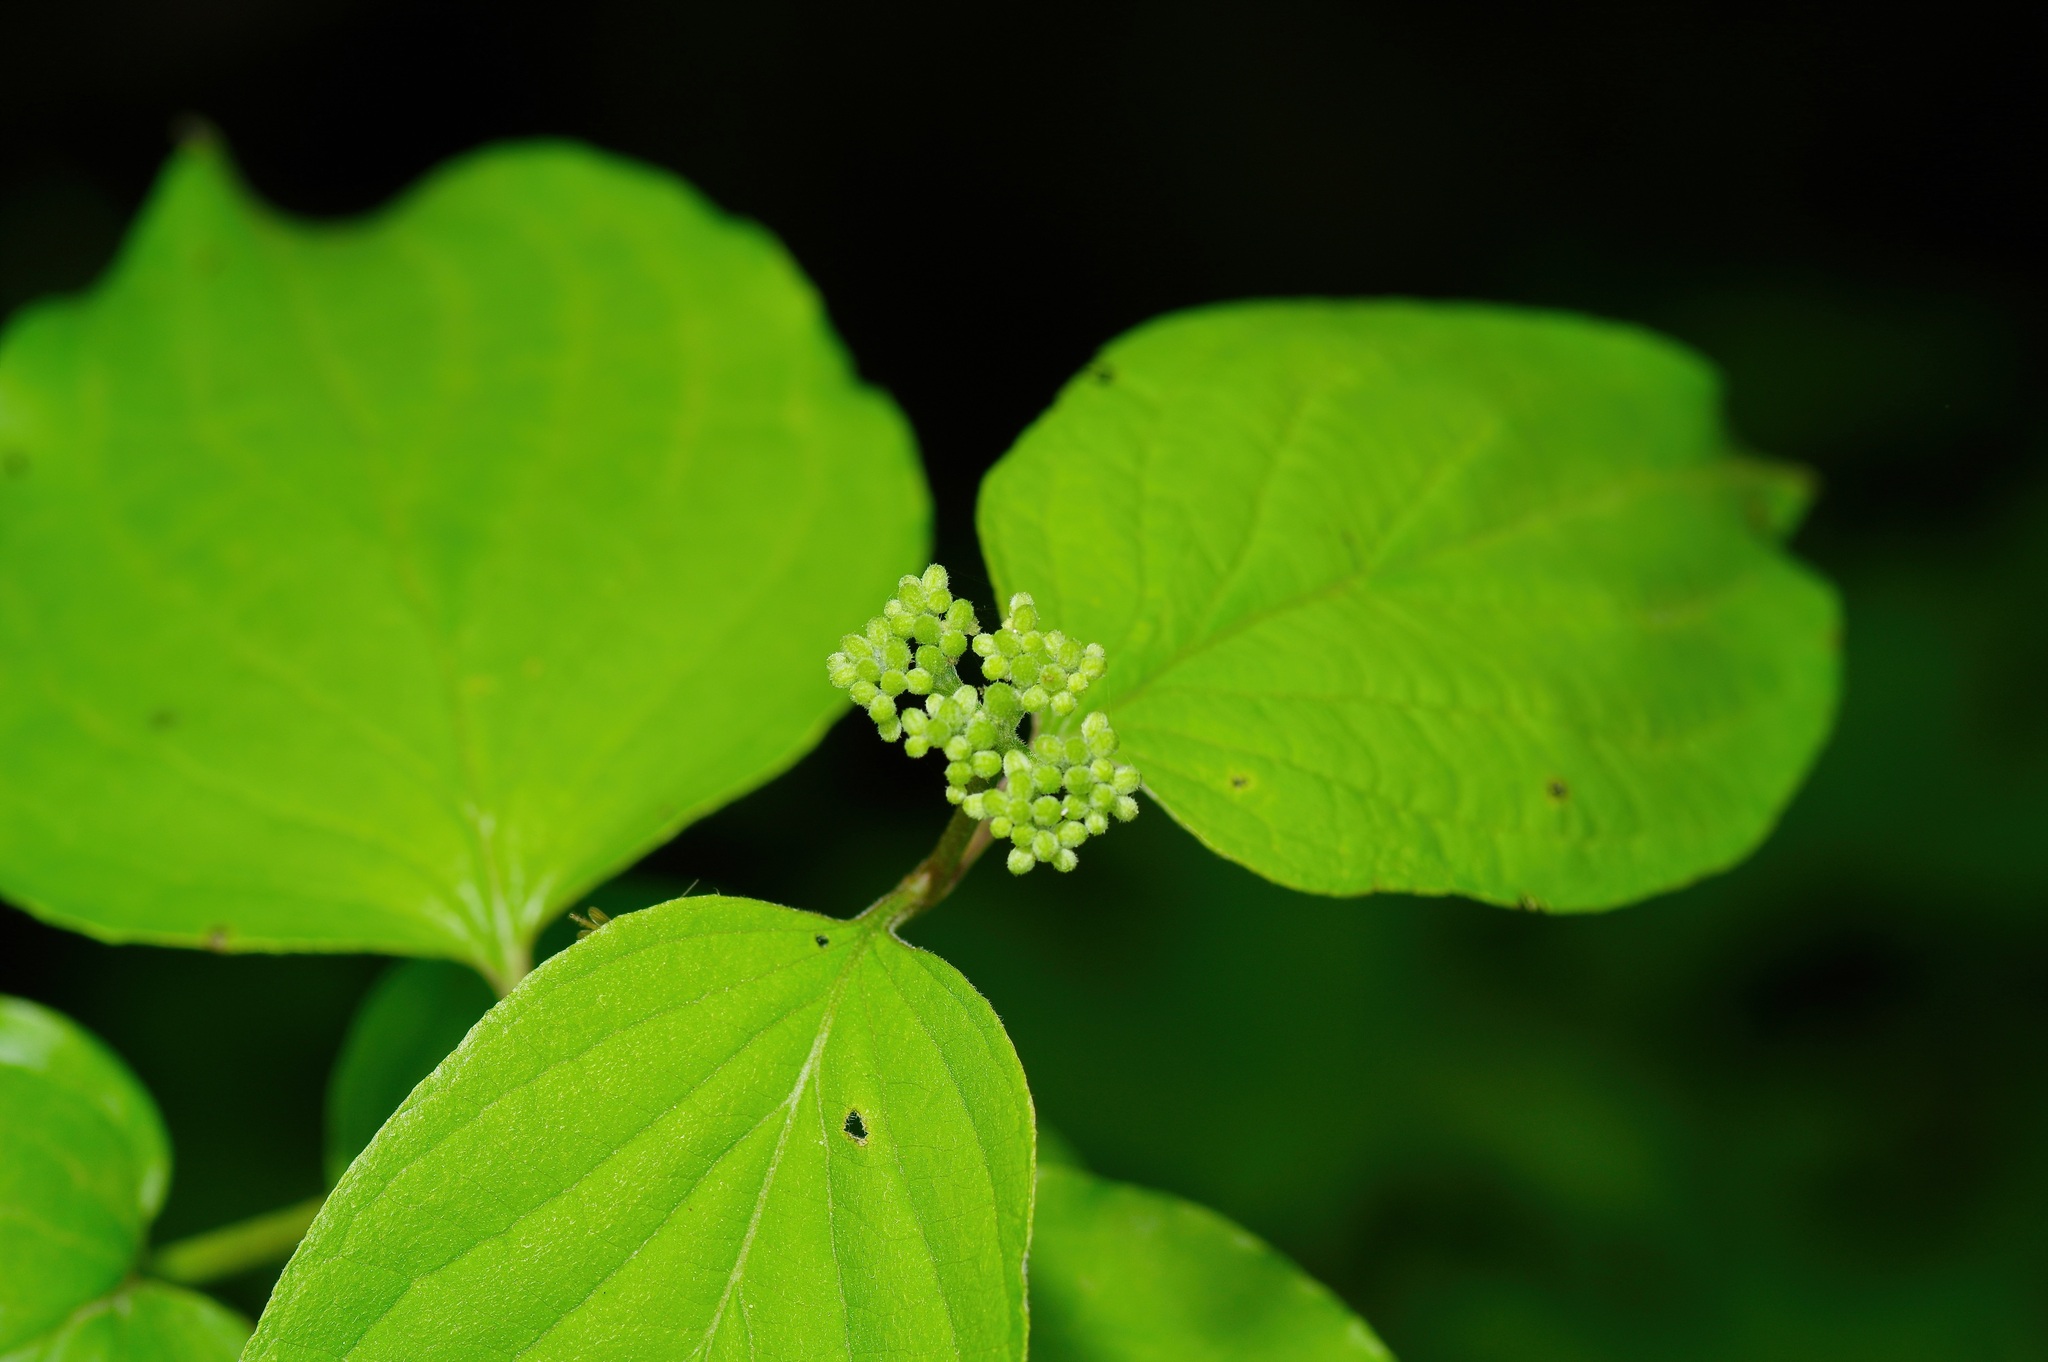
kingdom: Plantae
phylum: Tracheophyta
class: Magnoliopsida
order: Cornales
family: Cornaceae
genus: Cornus
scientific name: Cornus drummondii
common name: Rough-leaf dogwood
